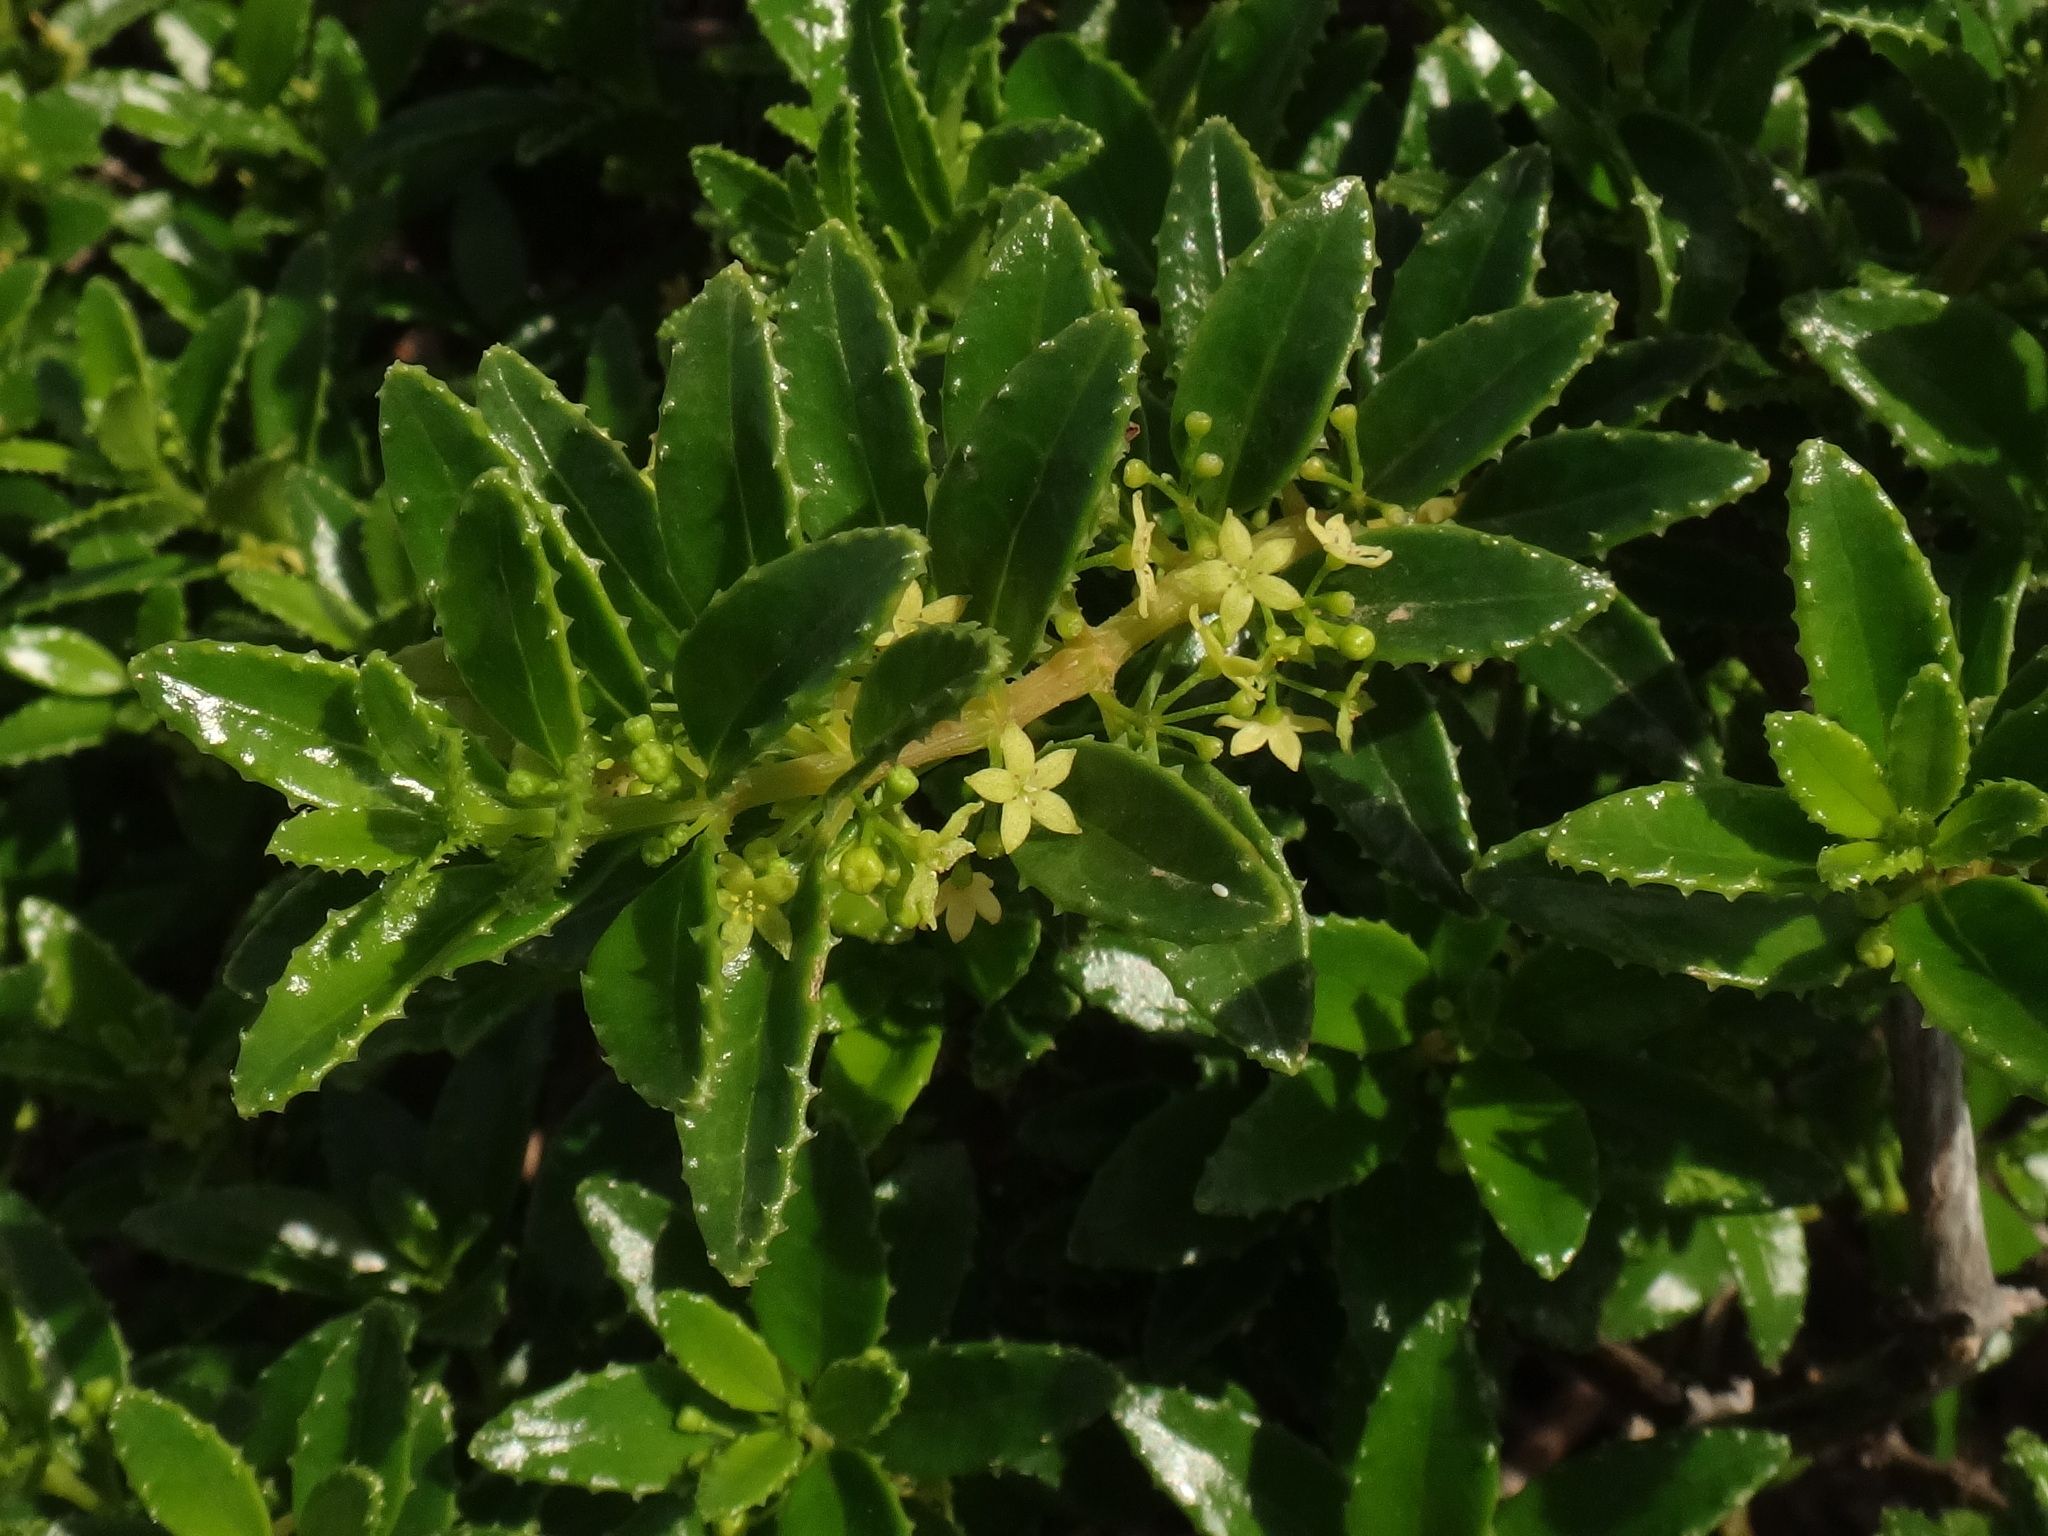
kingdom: Plantae
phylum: Tracheophyta
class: Magnoliopsida
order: Gentianales
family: Rubiaceae
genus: Rubia
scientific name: Rubia fruticosa
